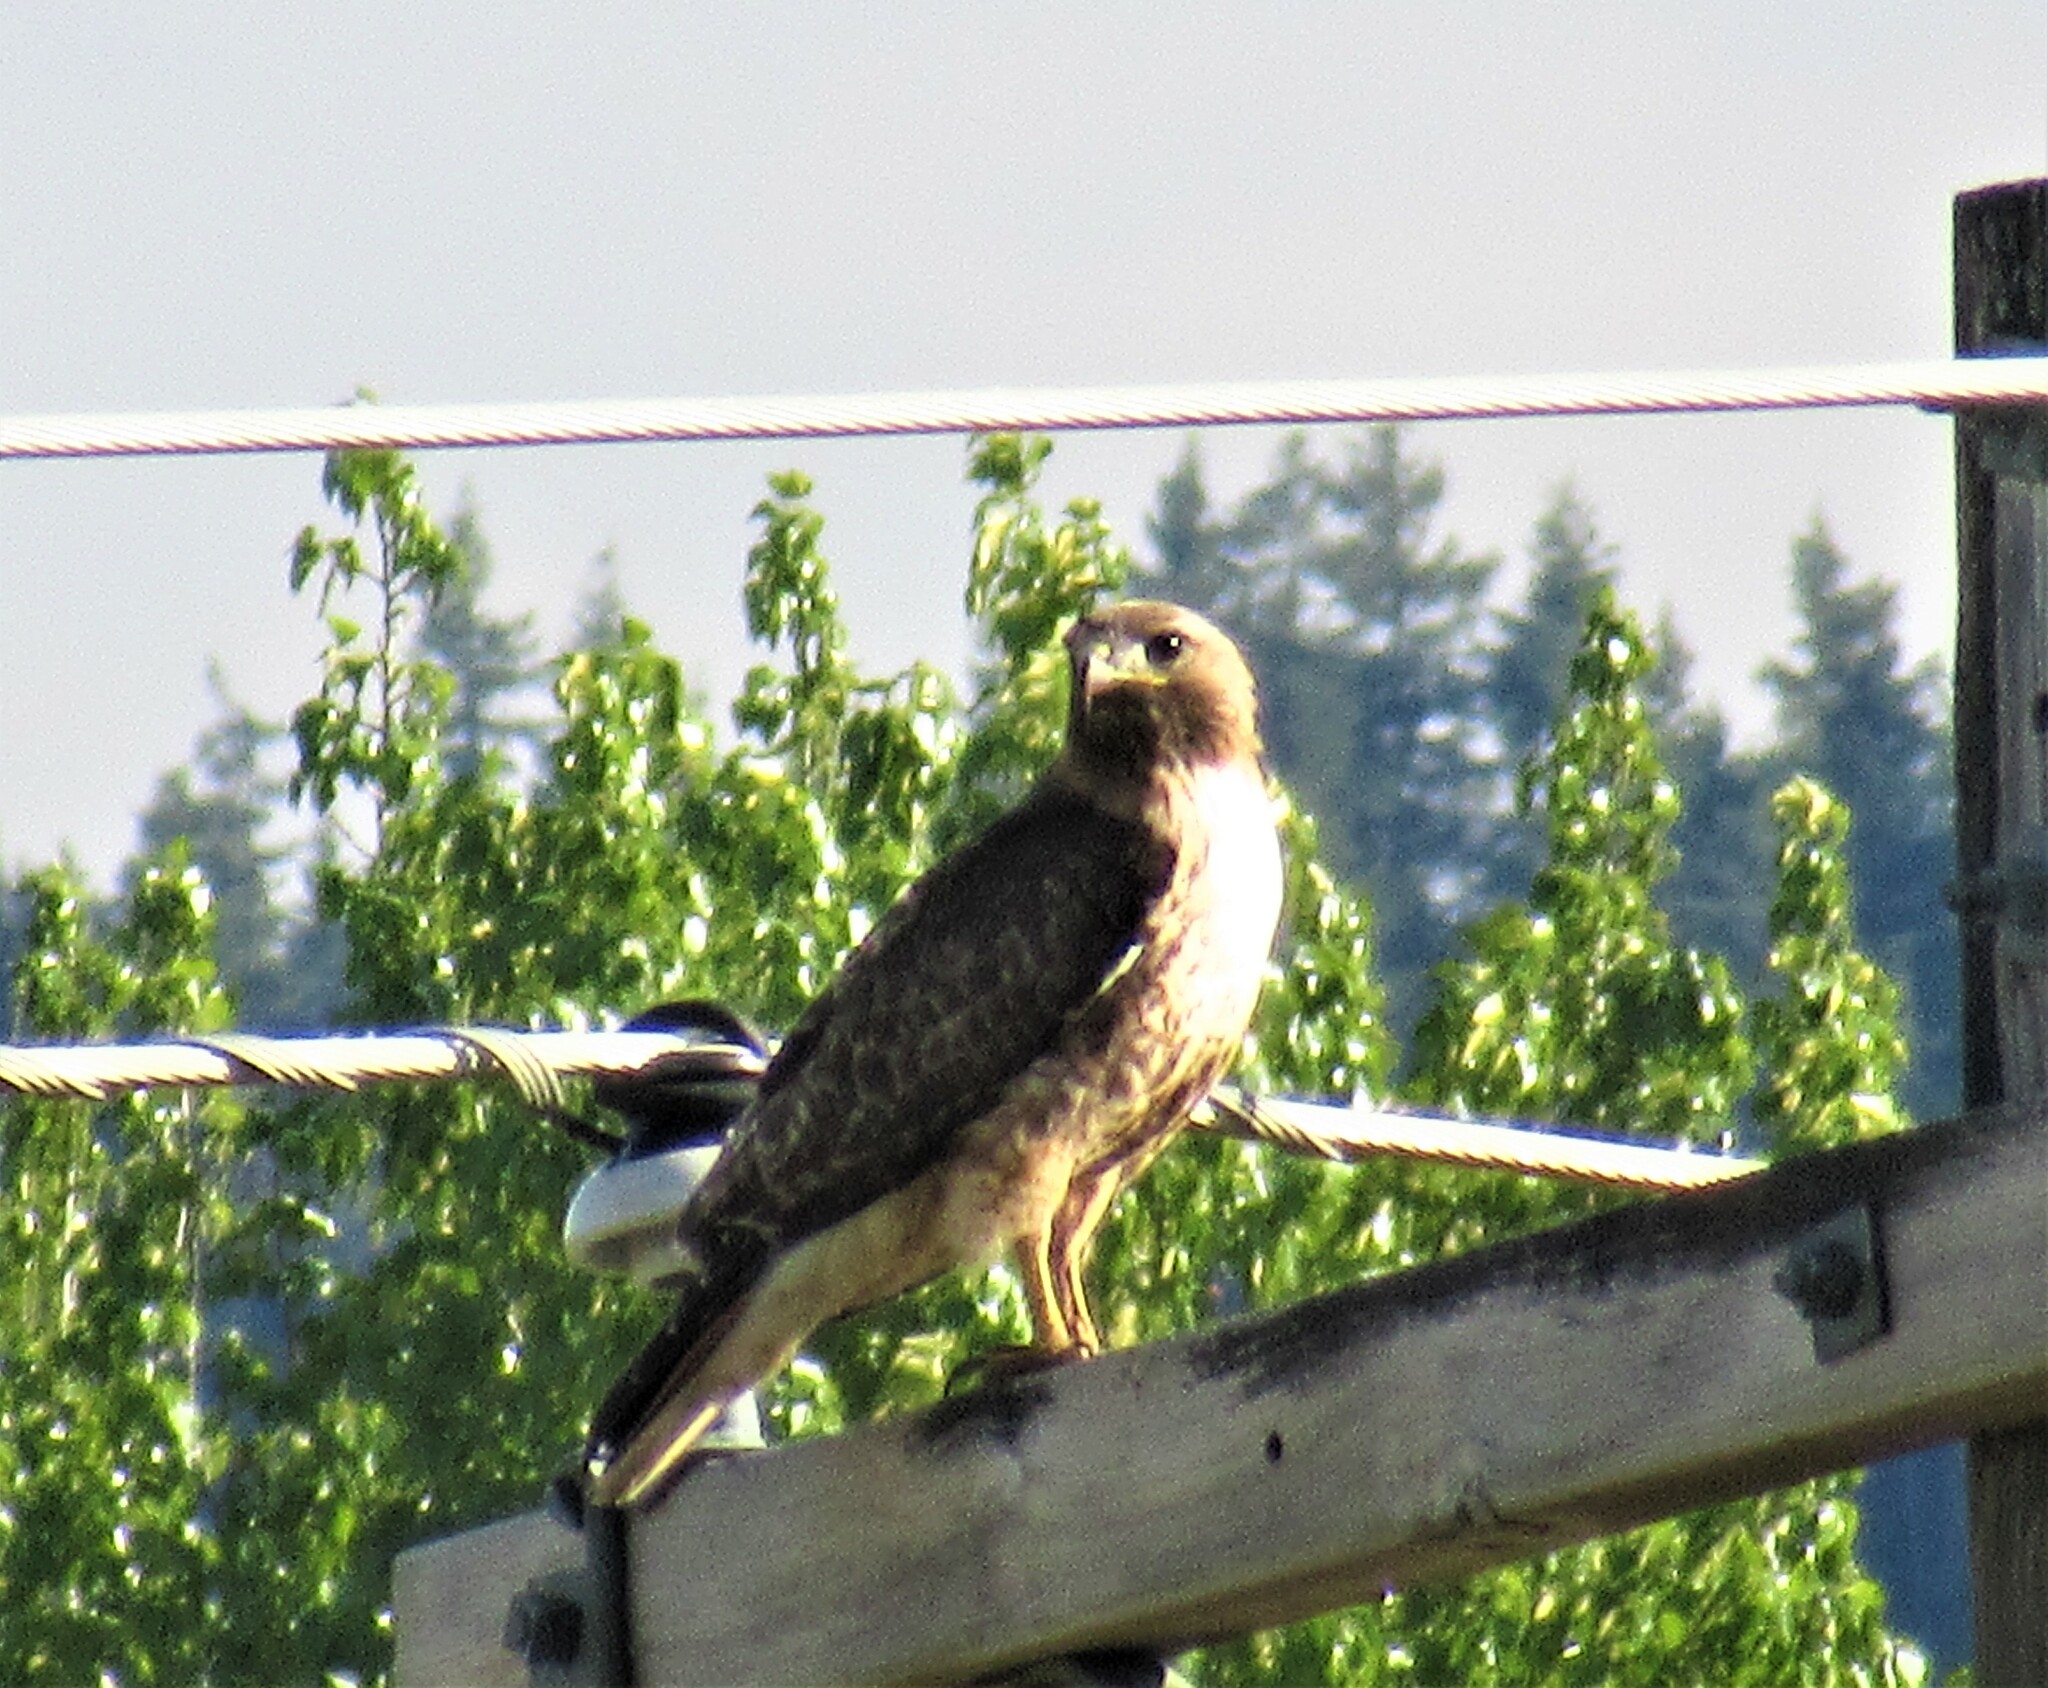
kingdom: Animalia
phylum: Chordata
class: Aves
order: Accipitriformes
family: Accipitridae
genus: Buteo
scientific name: Buteo jamaicensis
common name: Red-tailed hawk
